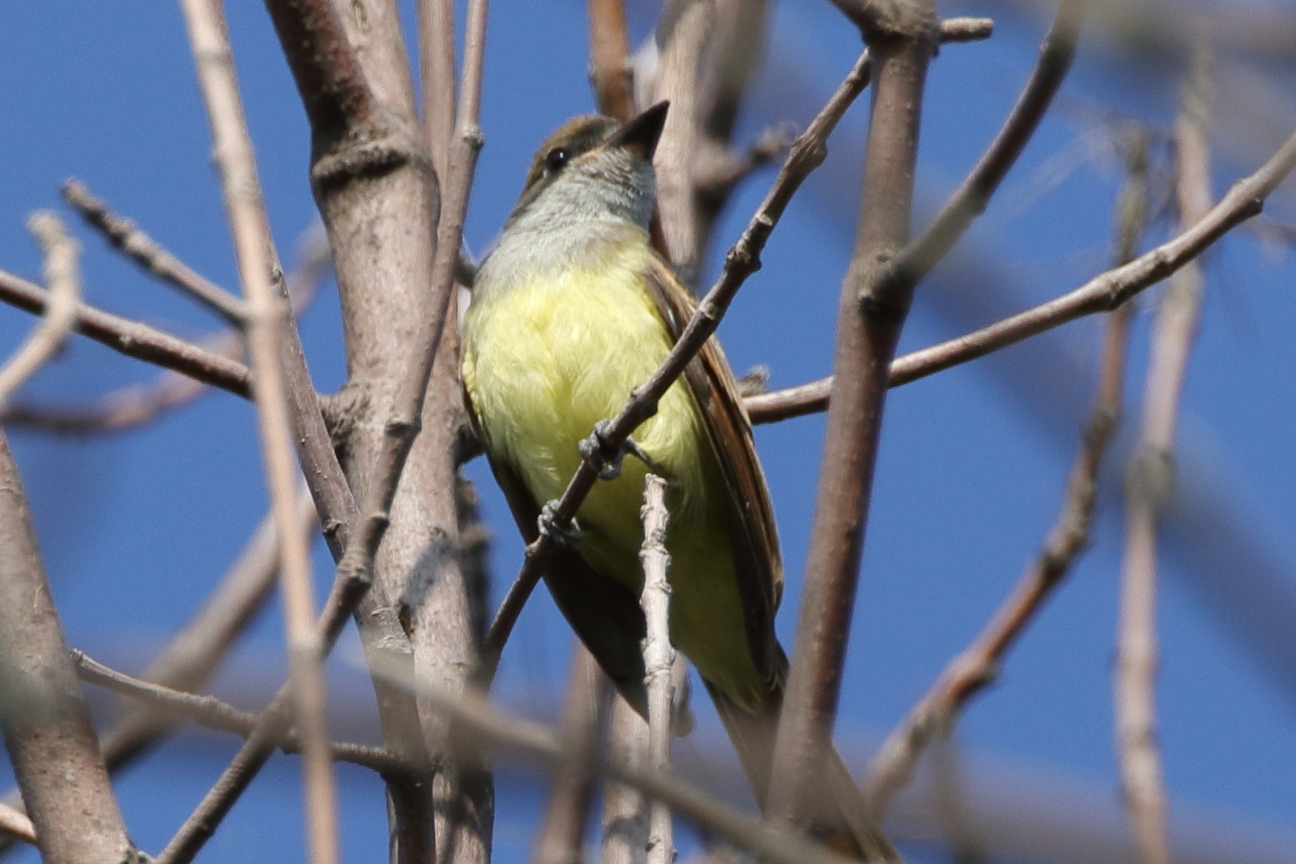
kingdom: Animalia
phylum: Chordata
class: Aves
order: Passeriformes
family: Tyrannidae
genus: Myiarchus
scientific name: Myiarchus crinitus
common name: Great crested flycatcher
